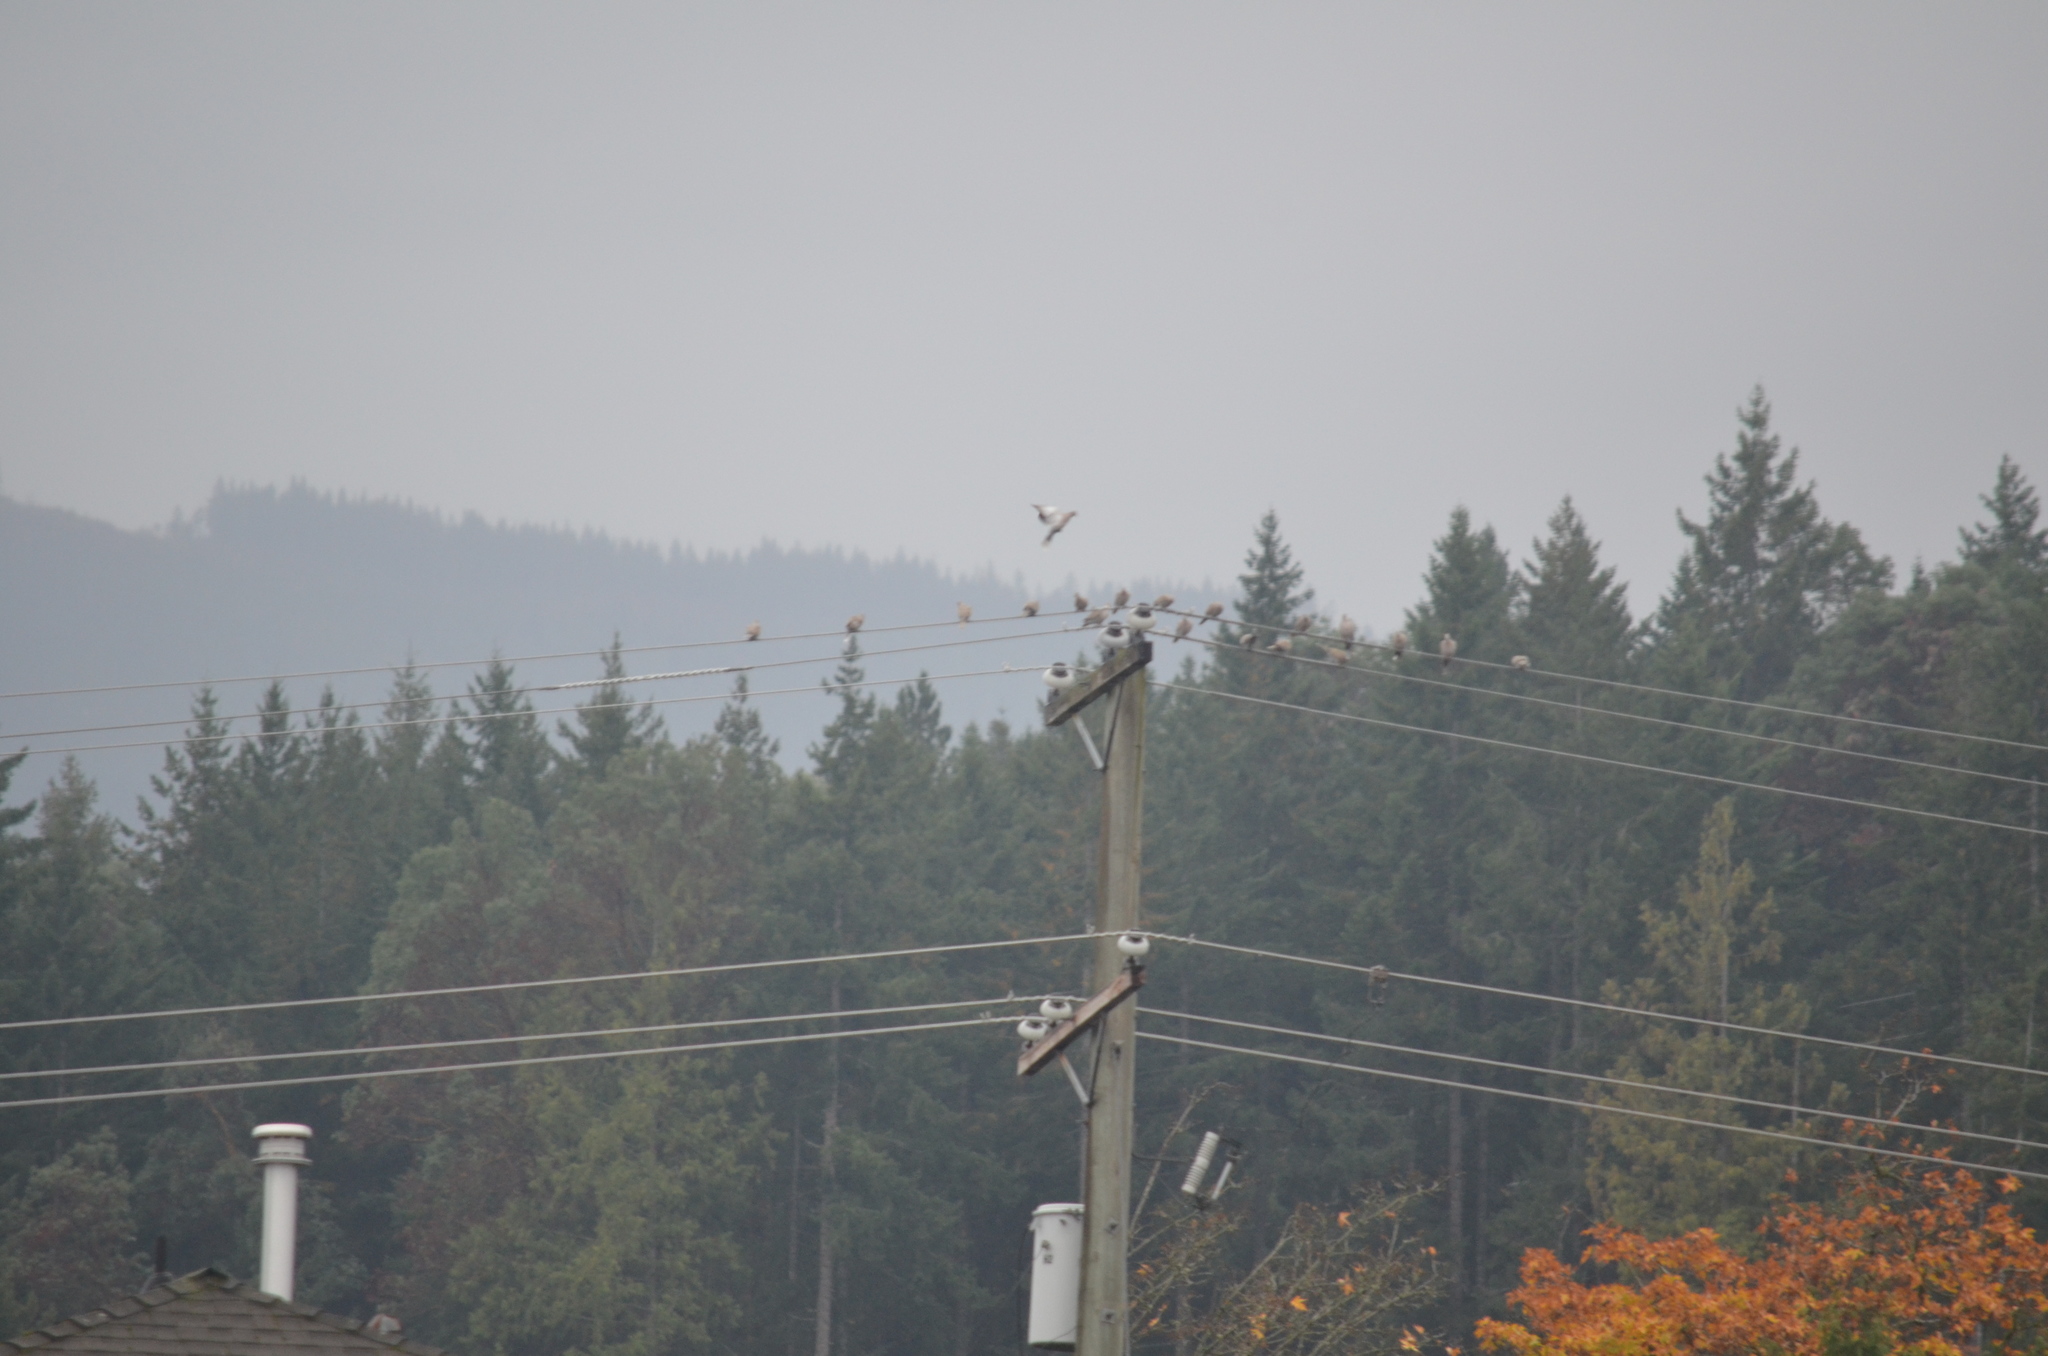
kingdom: Animalia
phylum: Chordata
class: Aves
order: Columbiformes
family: Columbidae
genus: Streptopelia
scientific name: Streptopelia decaocto
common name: Eurasian collared dove
